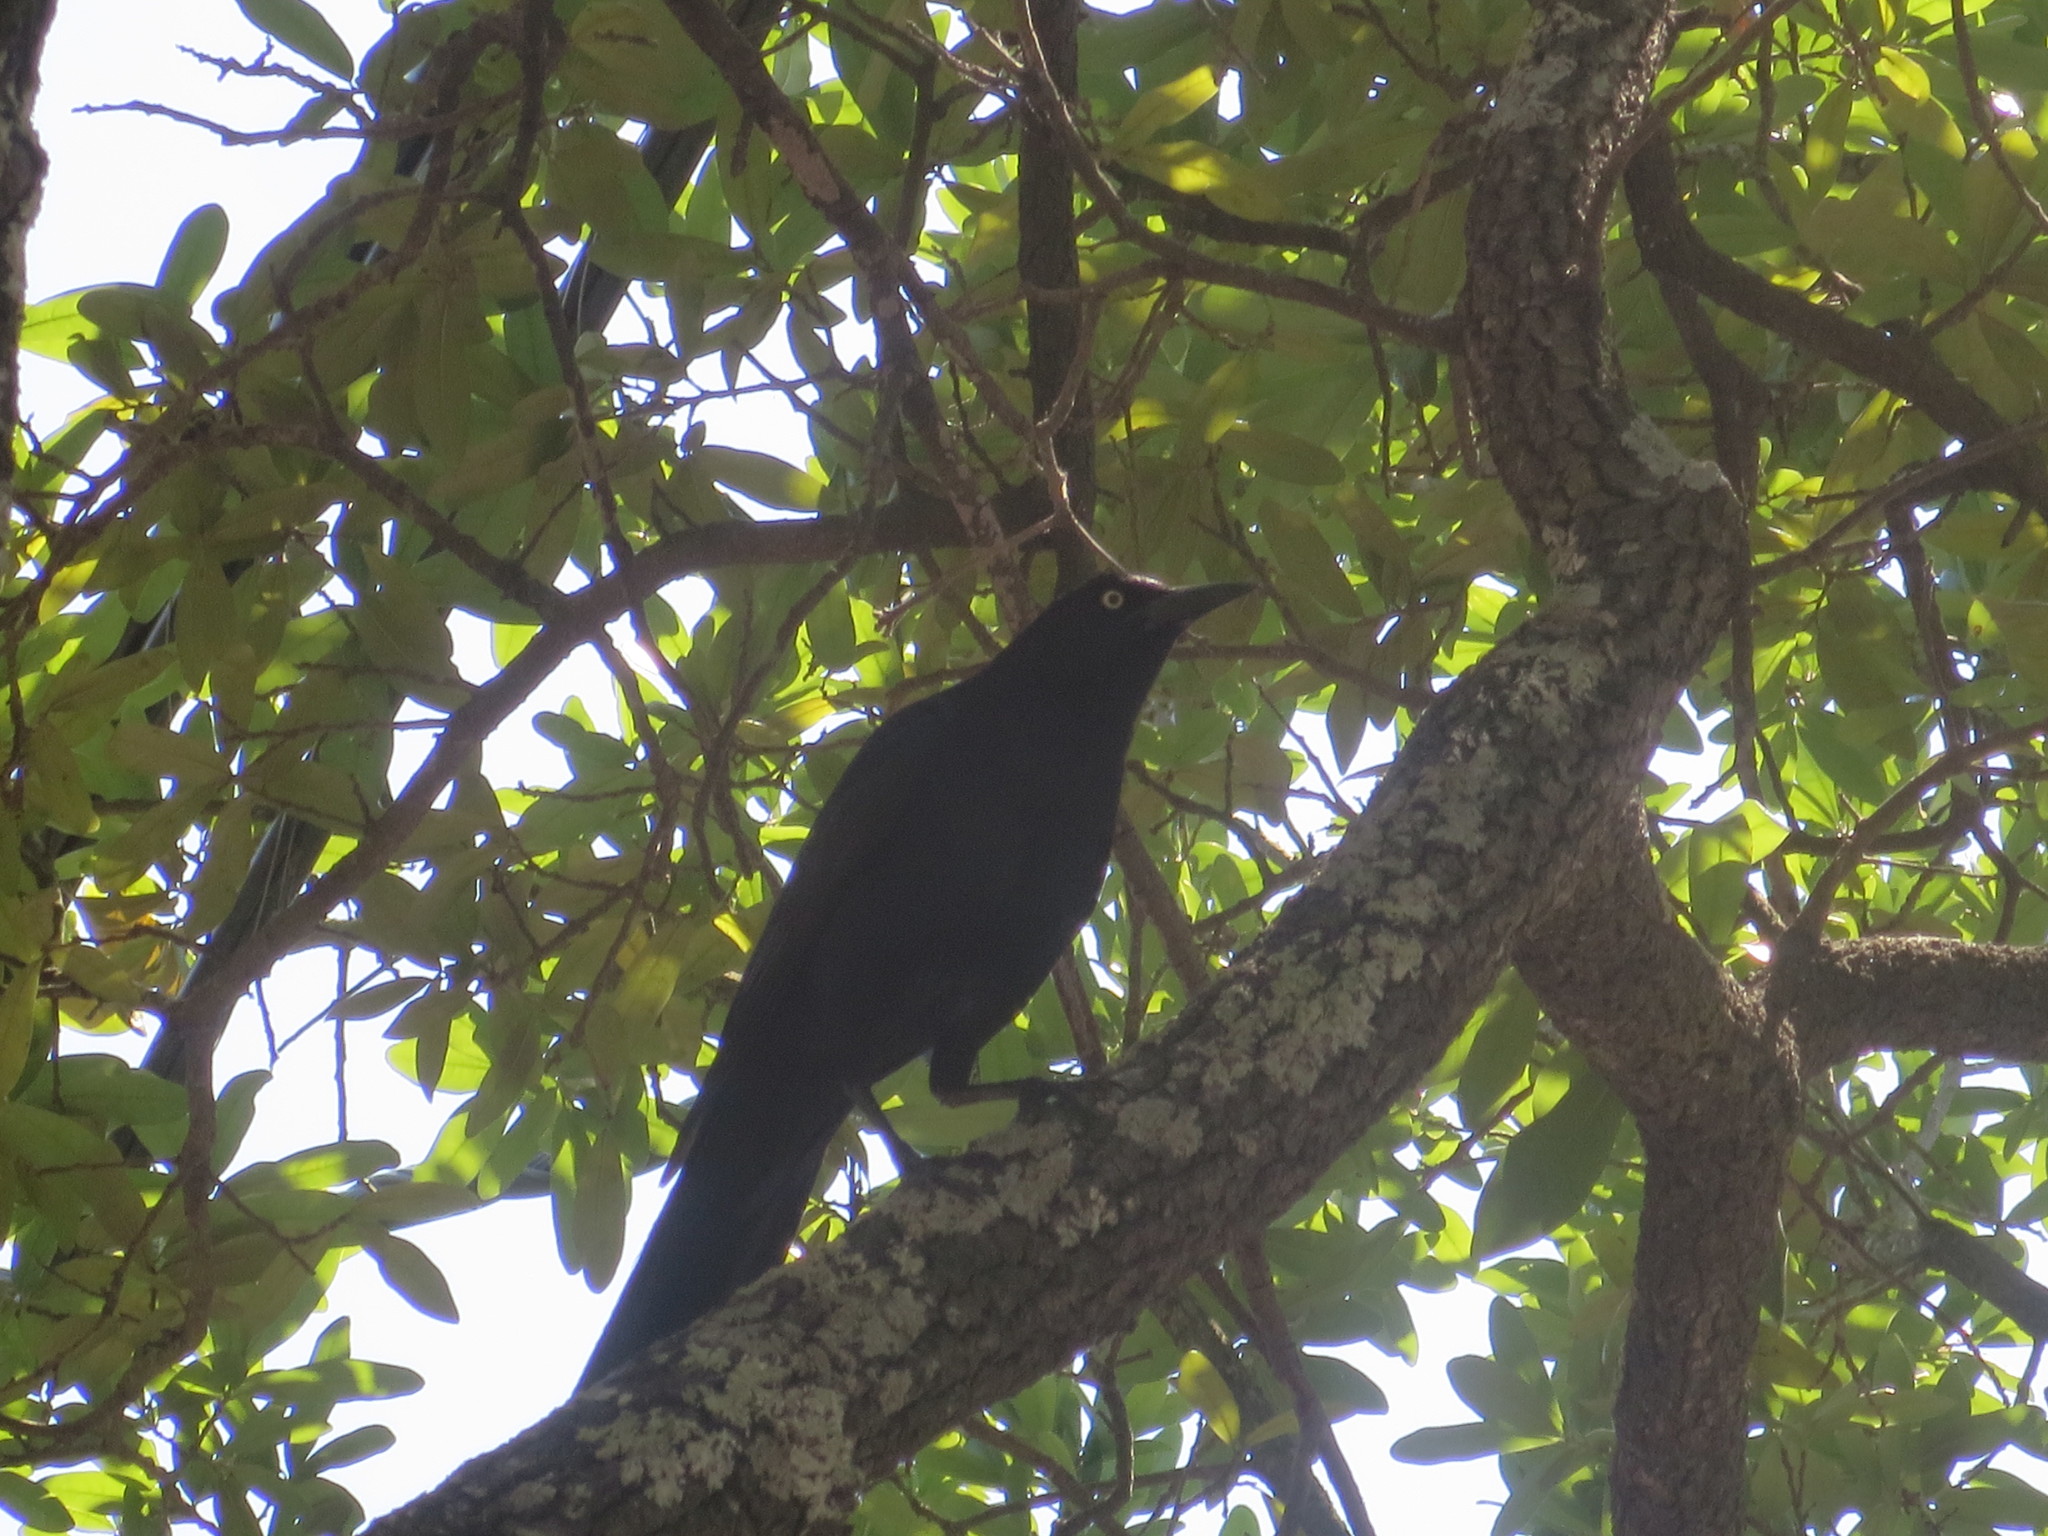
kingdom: Animalia
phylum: Chordata
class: Aves
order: Passeriformes
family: Icteridae
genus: Quiscalus
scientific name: Quiscalus major
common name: Boat-tailed grackle
